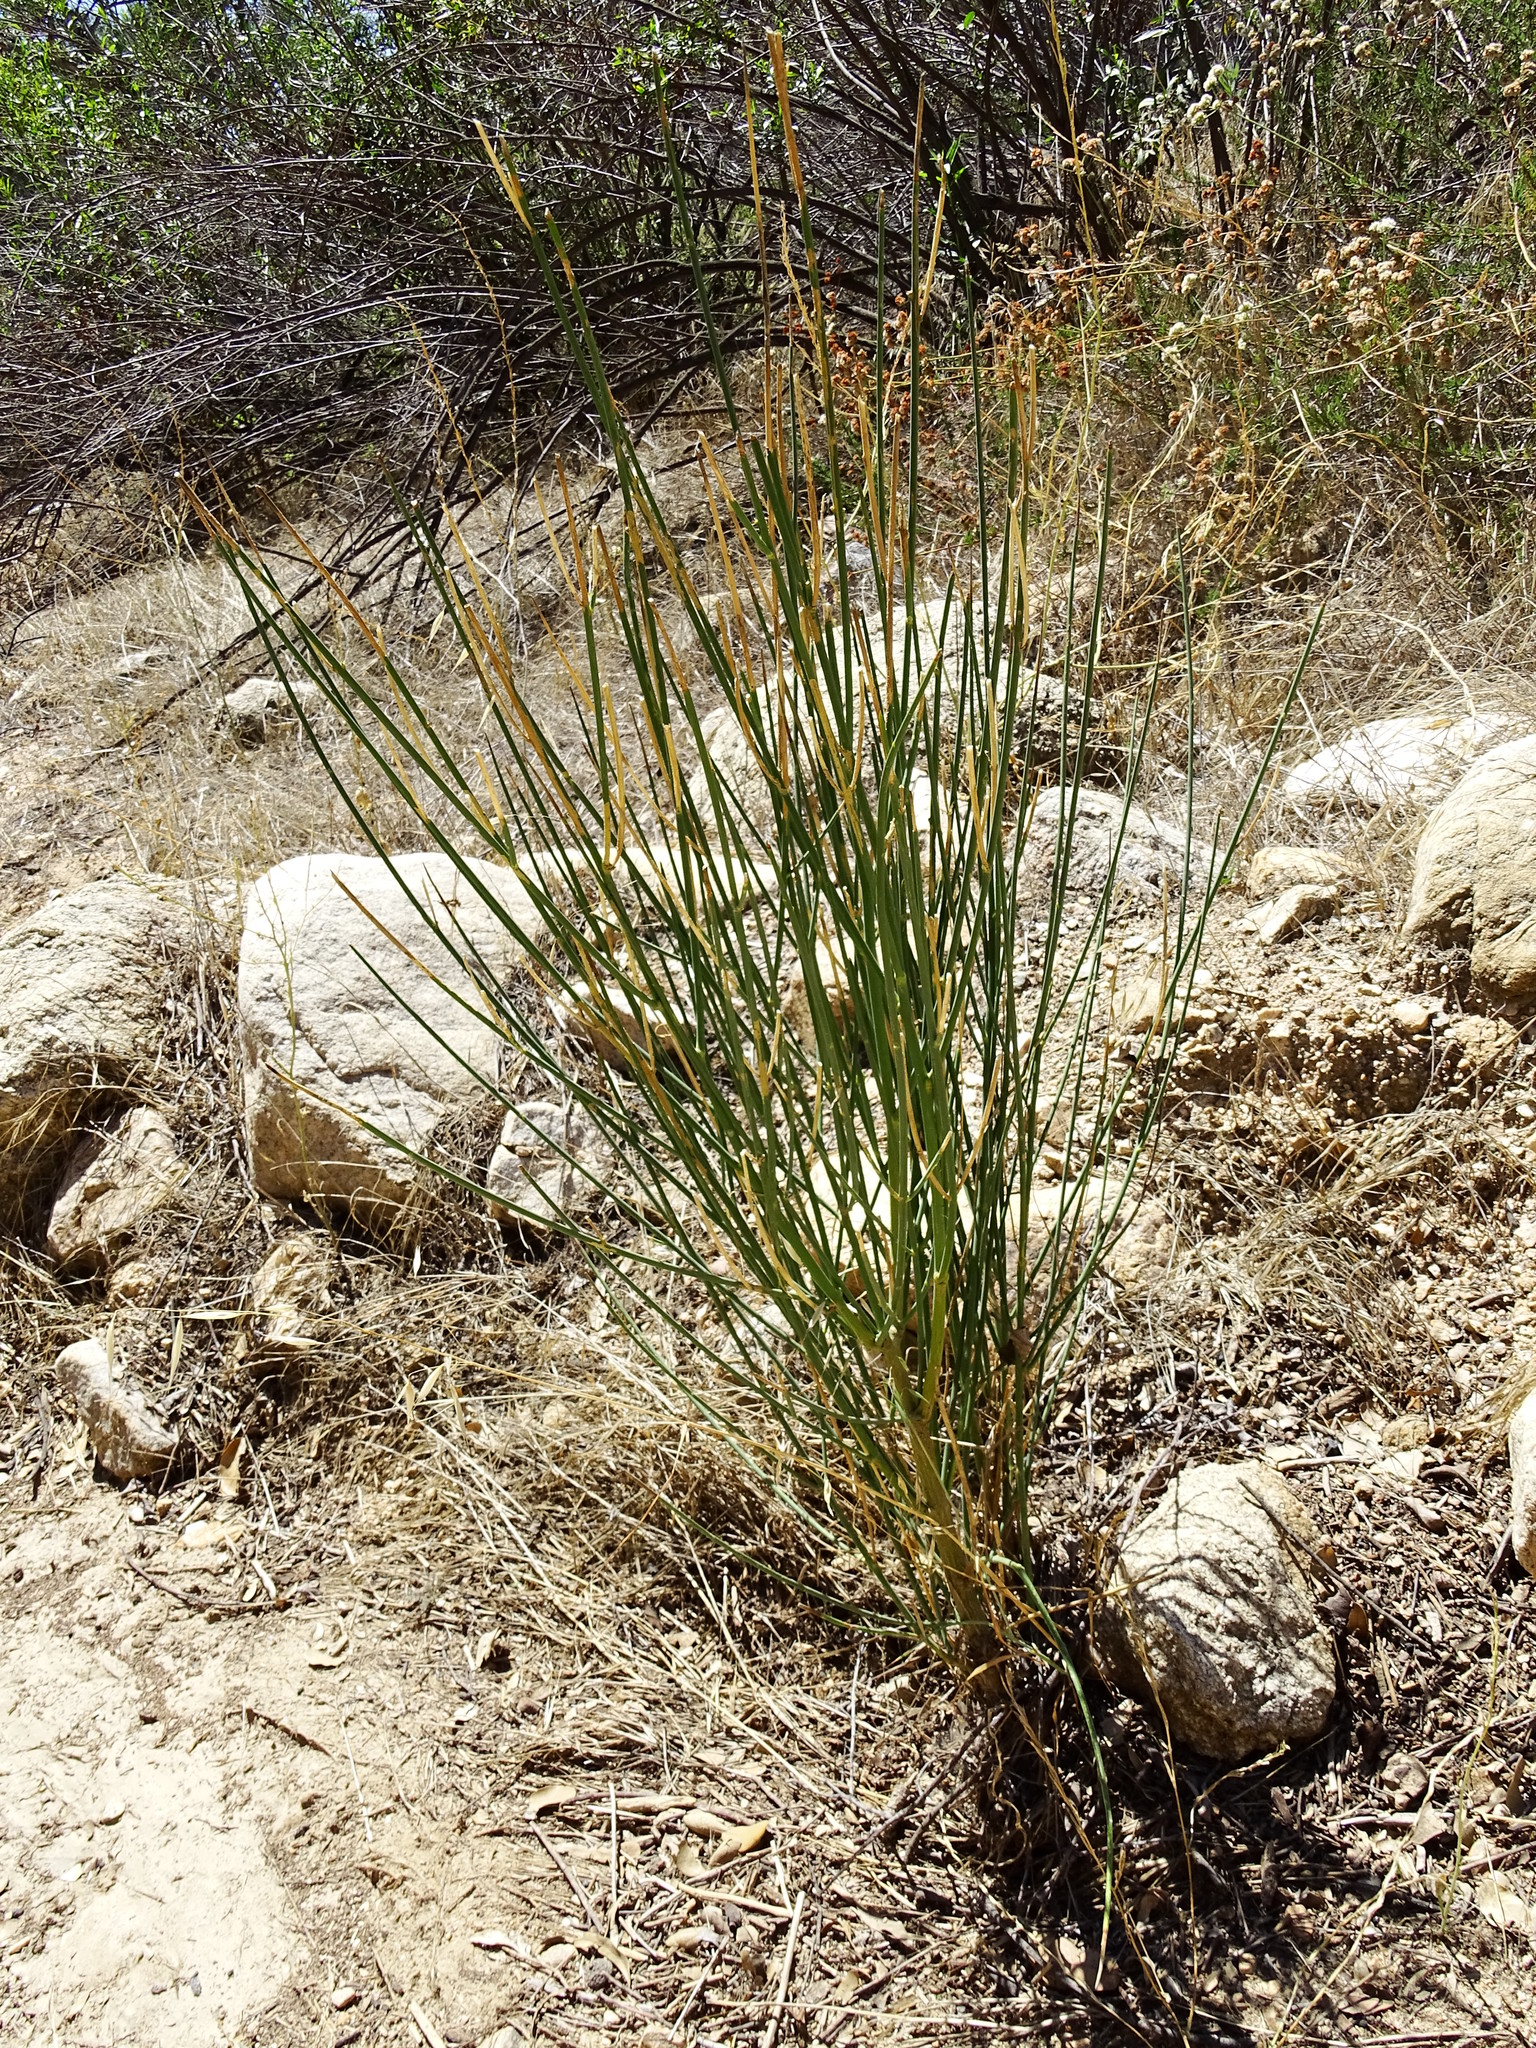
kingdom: Plantae
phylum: Tracheophyta
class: Magnoliopsida
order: Fabales
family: Fabaceae
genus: Spartium
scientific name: Spartium junceum
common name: Spanish broom
